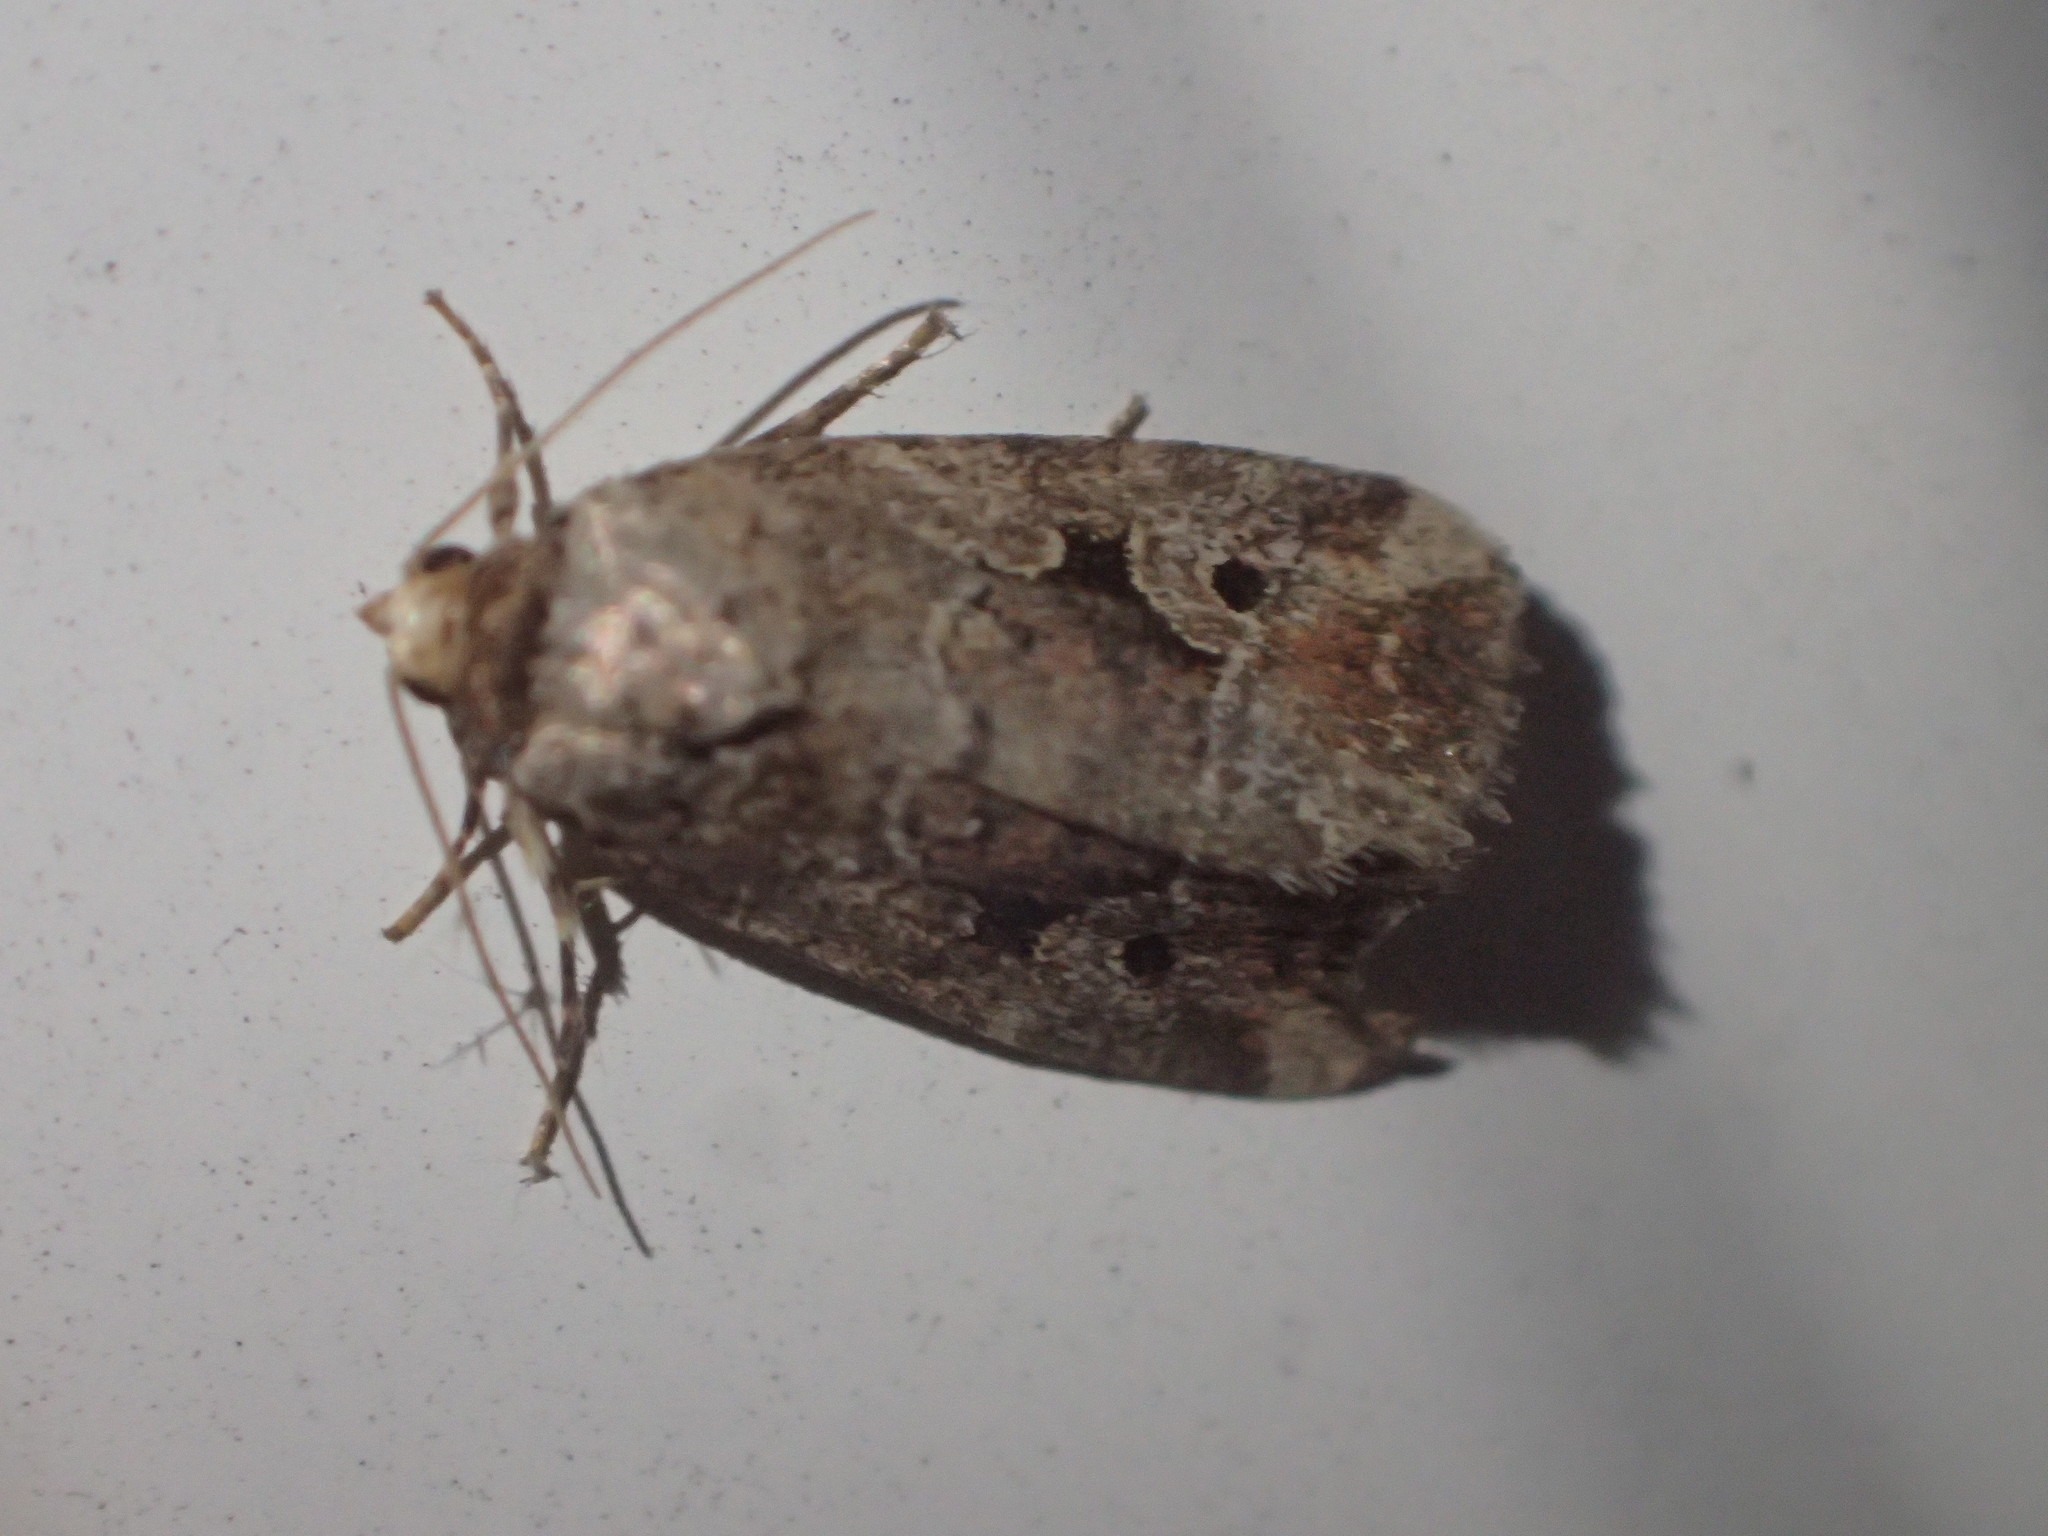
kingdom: Animalia
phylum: Arthropoda
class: Insecta
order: Lepidoptera
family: Noctuidae
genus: Elaphria
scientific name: Elaphria alapallida
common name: Pale-winged midget
